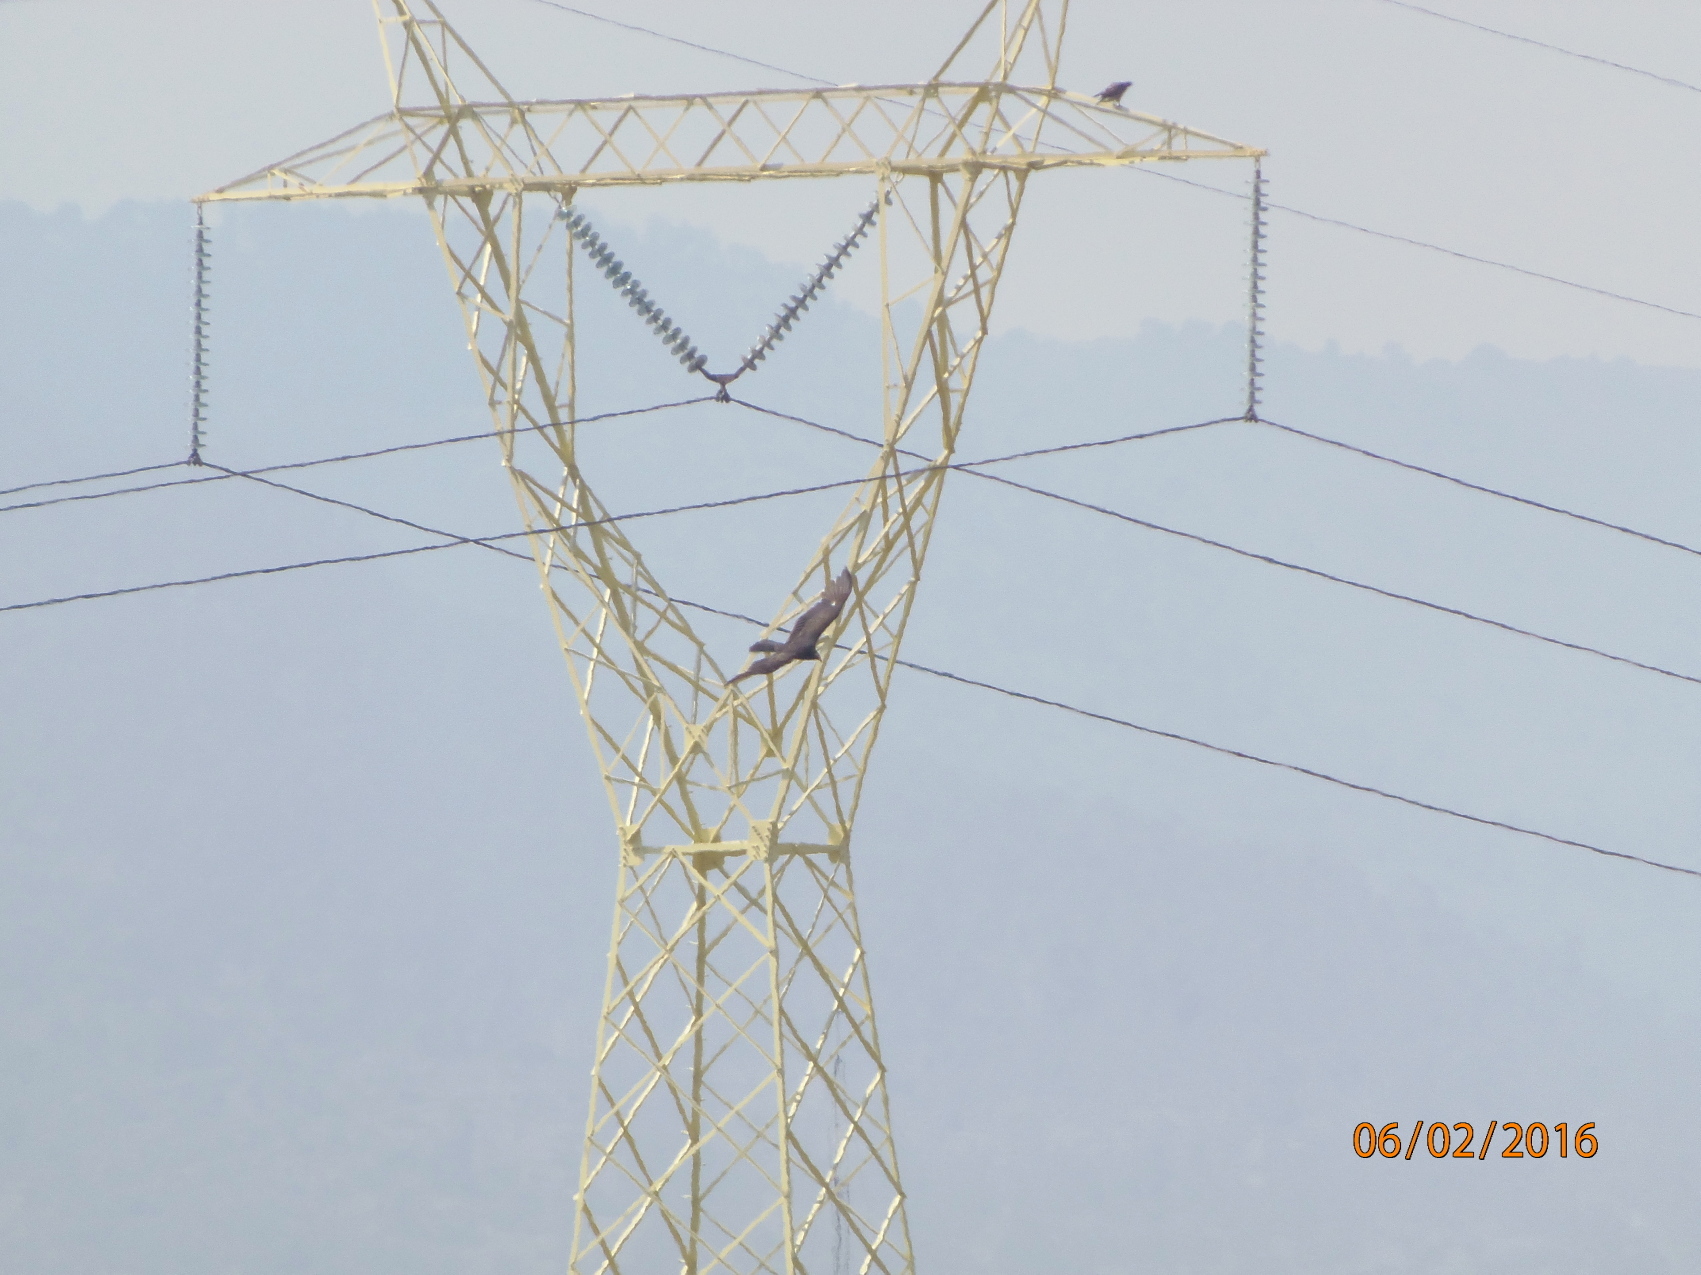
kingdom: Animalia
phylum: Chordata
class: Aves
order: Accipitriformes
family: Cathartidae
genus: Cathartes
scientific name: Cathartes aura
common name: Turkey vulture
